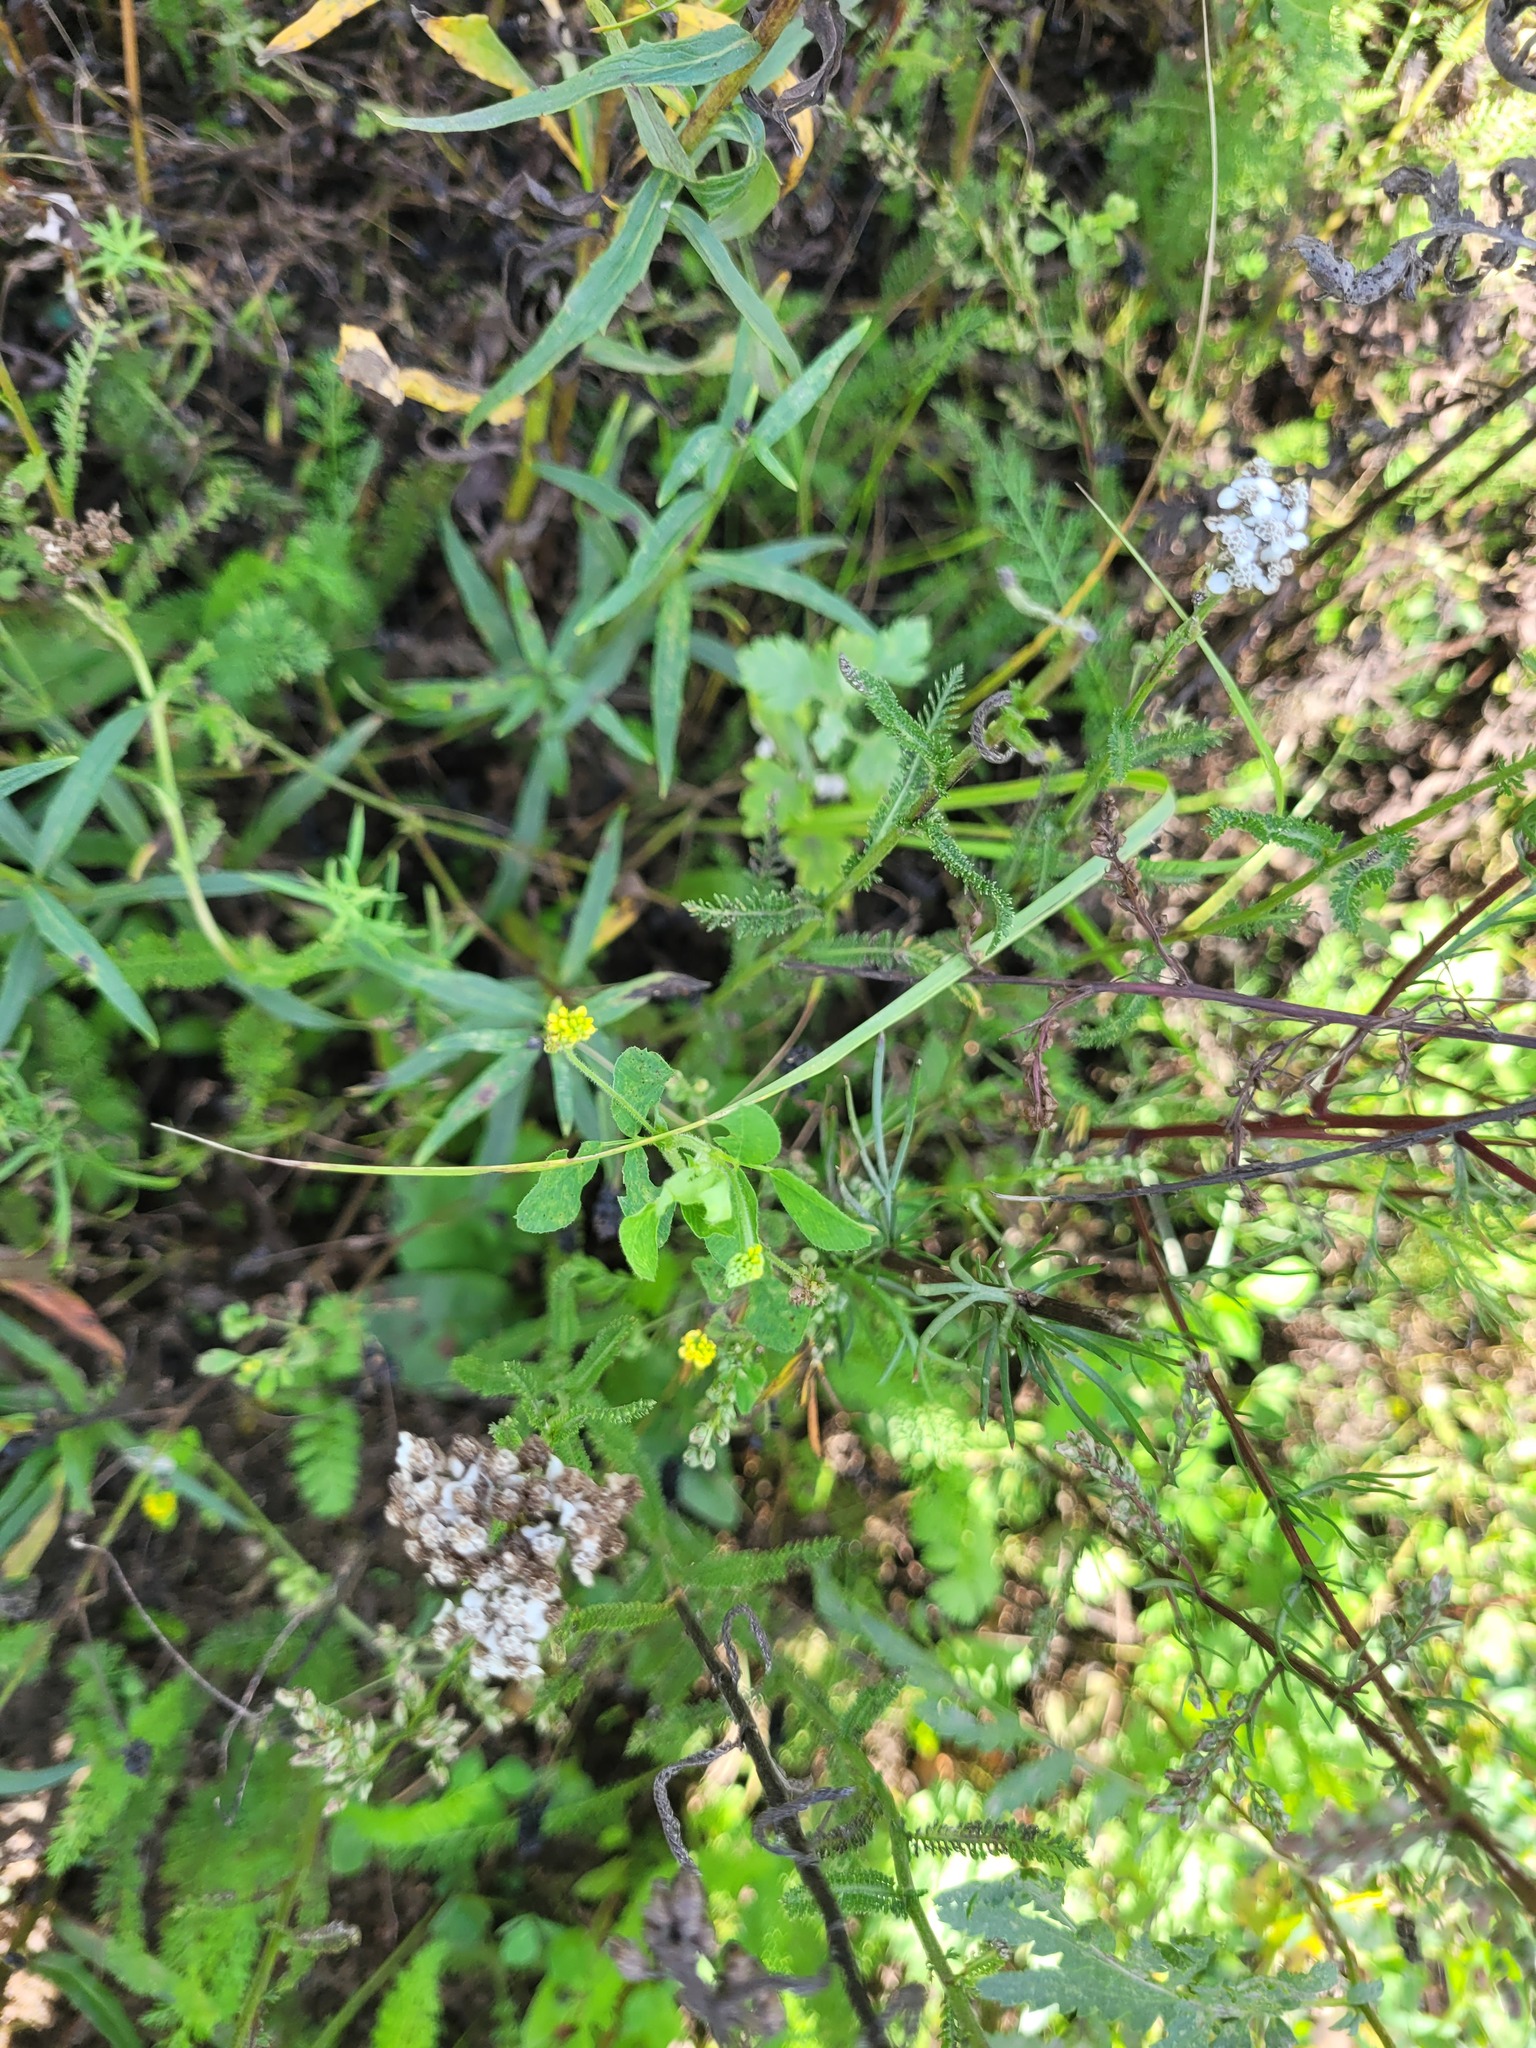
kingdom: Plantae
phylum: Tracheophyta
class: Magnoliopsida
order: Fabales
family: Fabaceae
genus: Medicago
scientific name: Medicago lupulina
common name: Black medick
